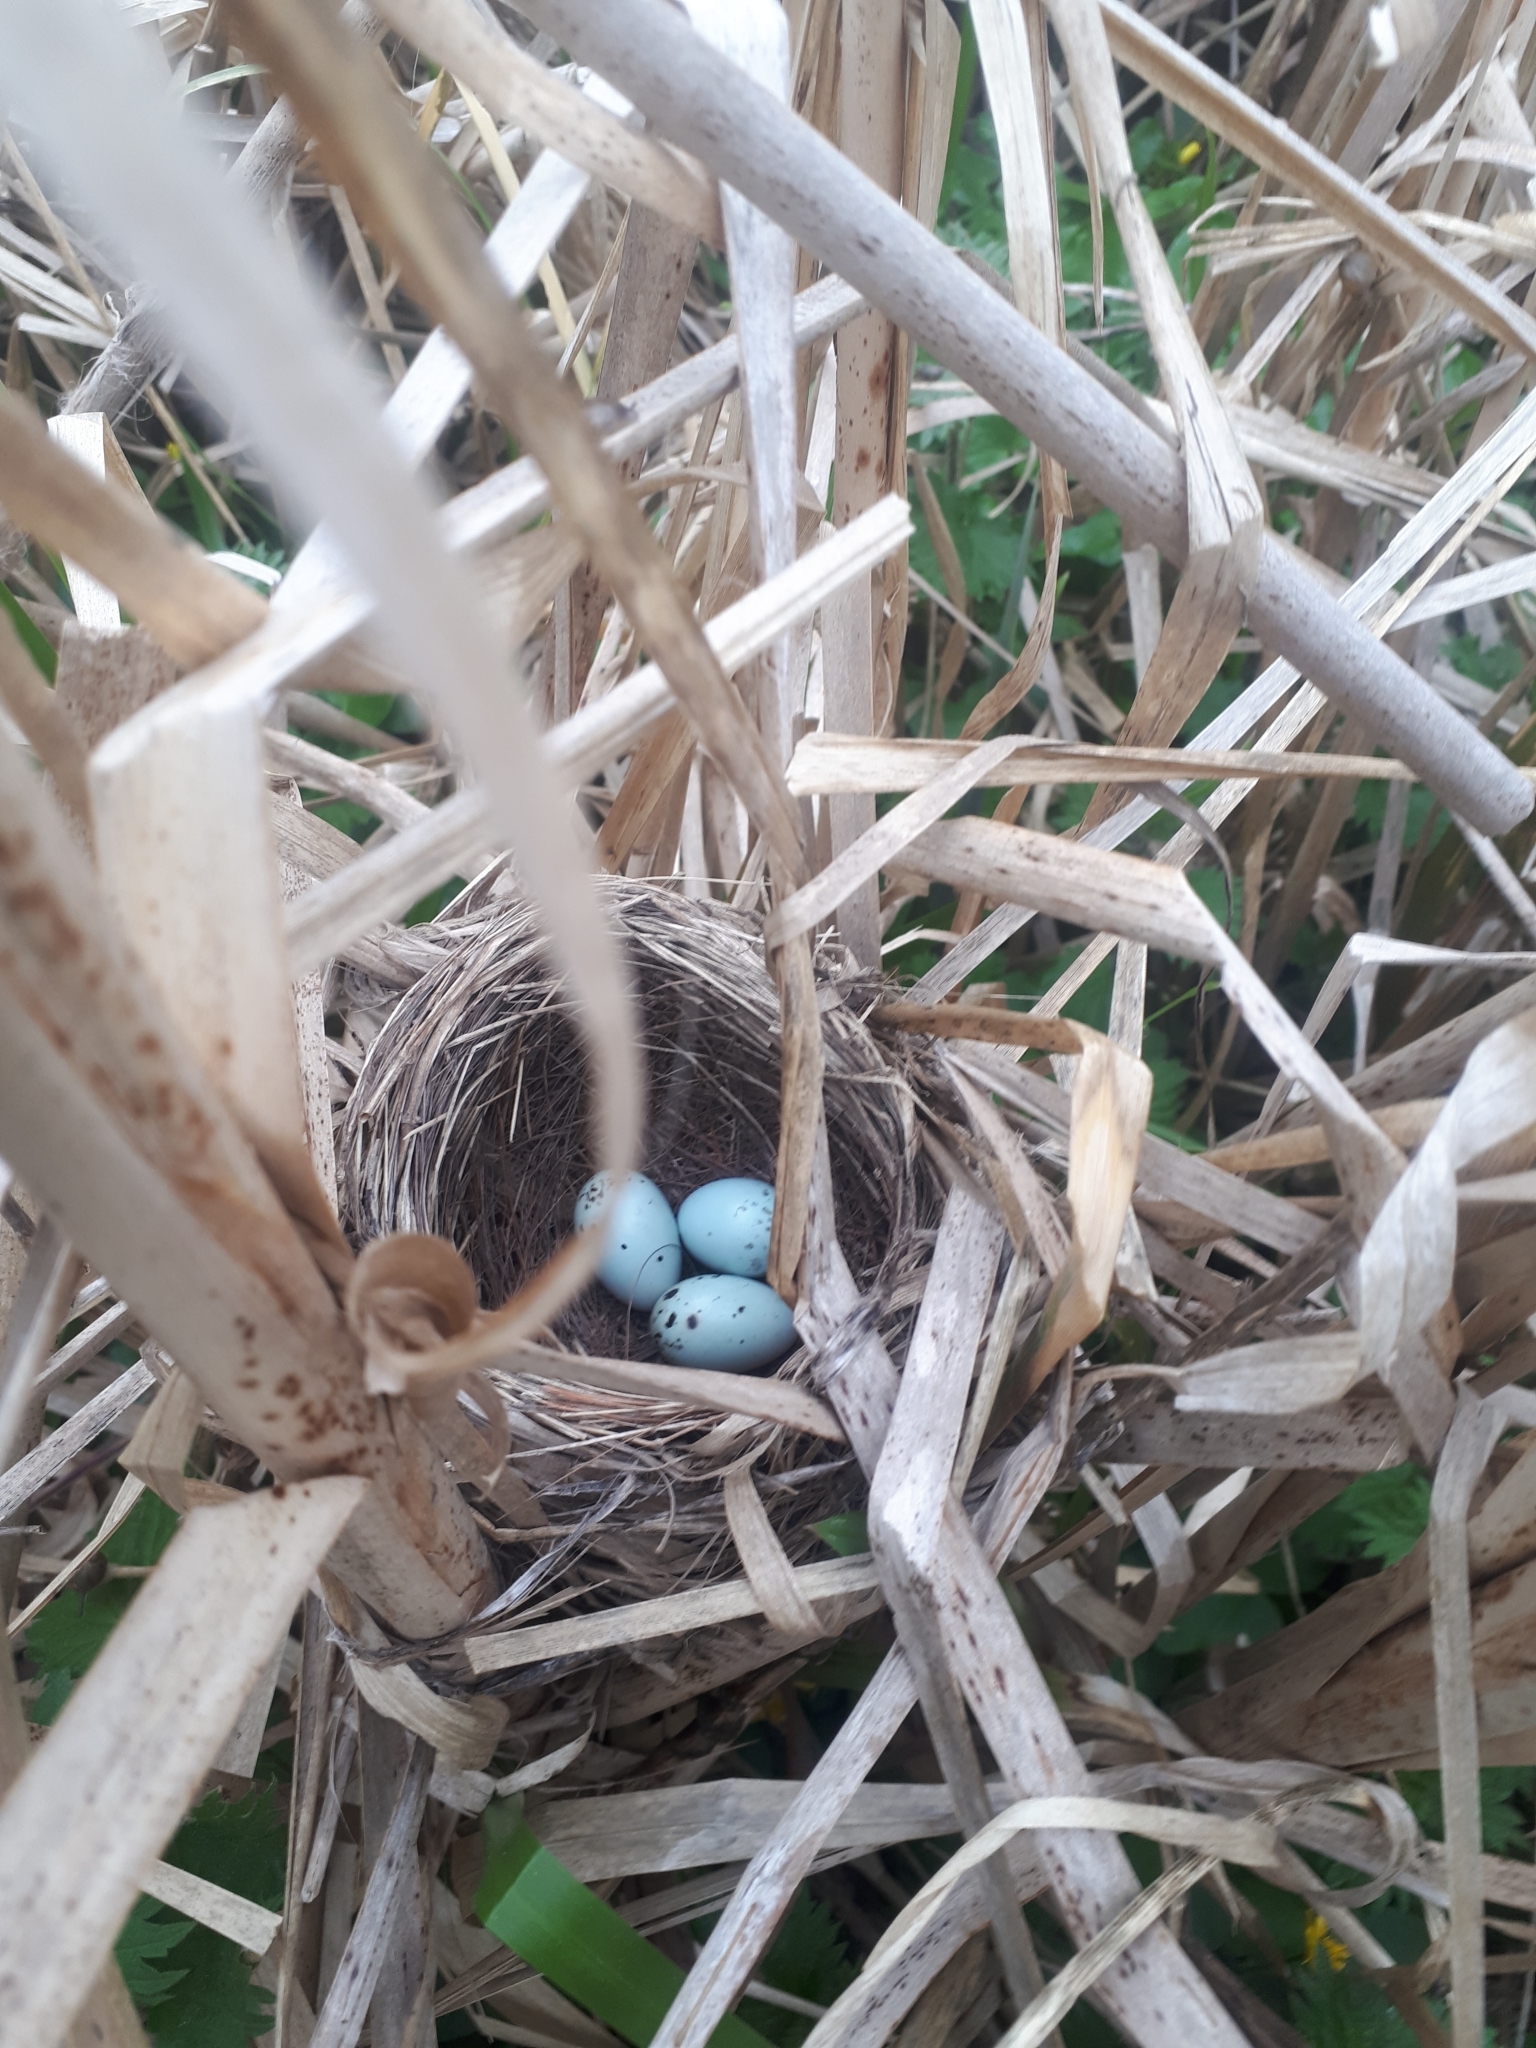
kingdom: Animalia
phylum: Chordata
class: Aves
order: Passeriformes
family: Icteridae
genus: Agelaius
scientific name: Agelaius phoeniceus
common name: Red-winged blackbird
